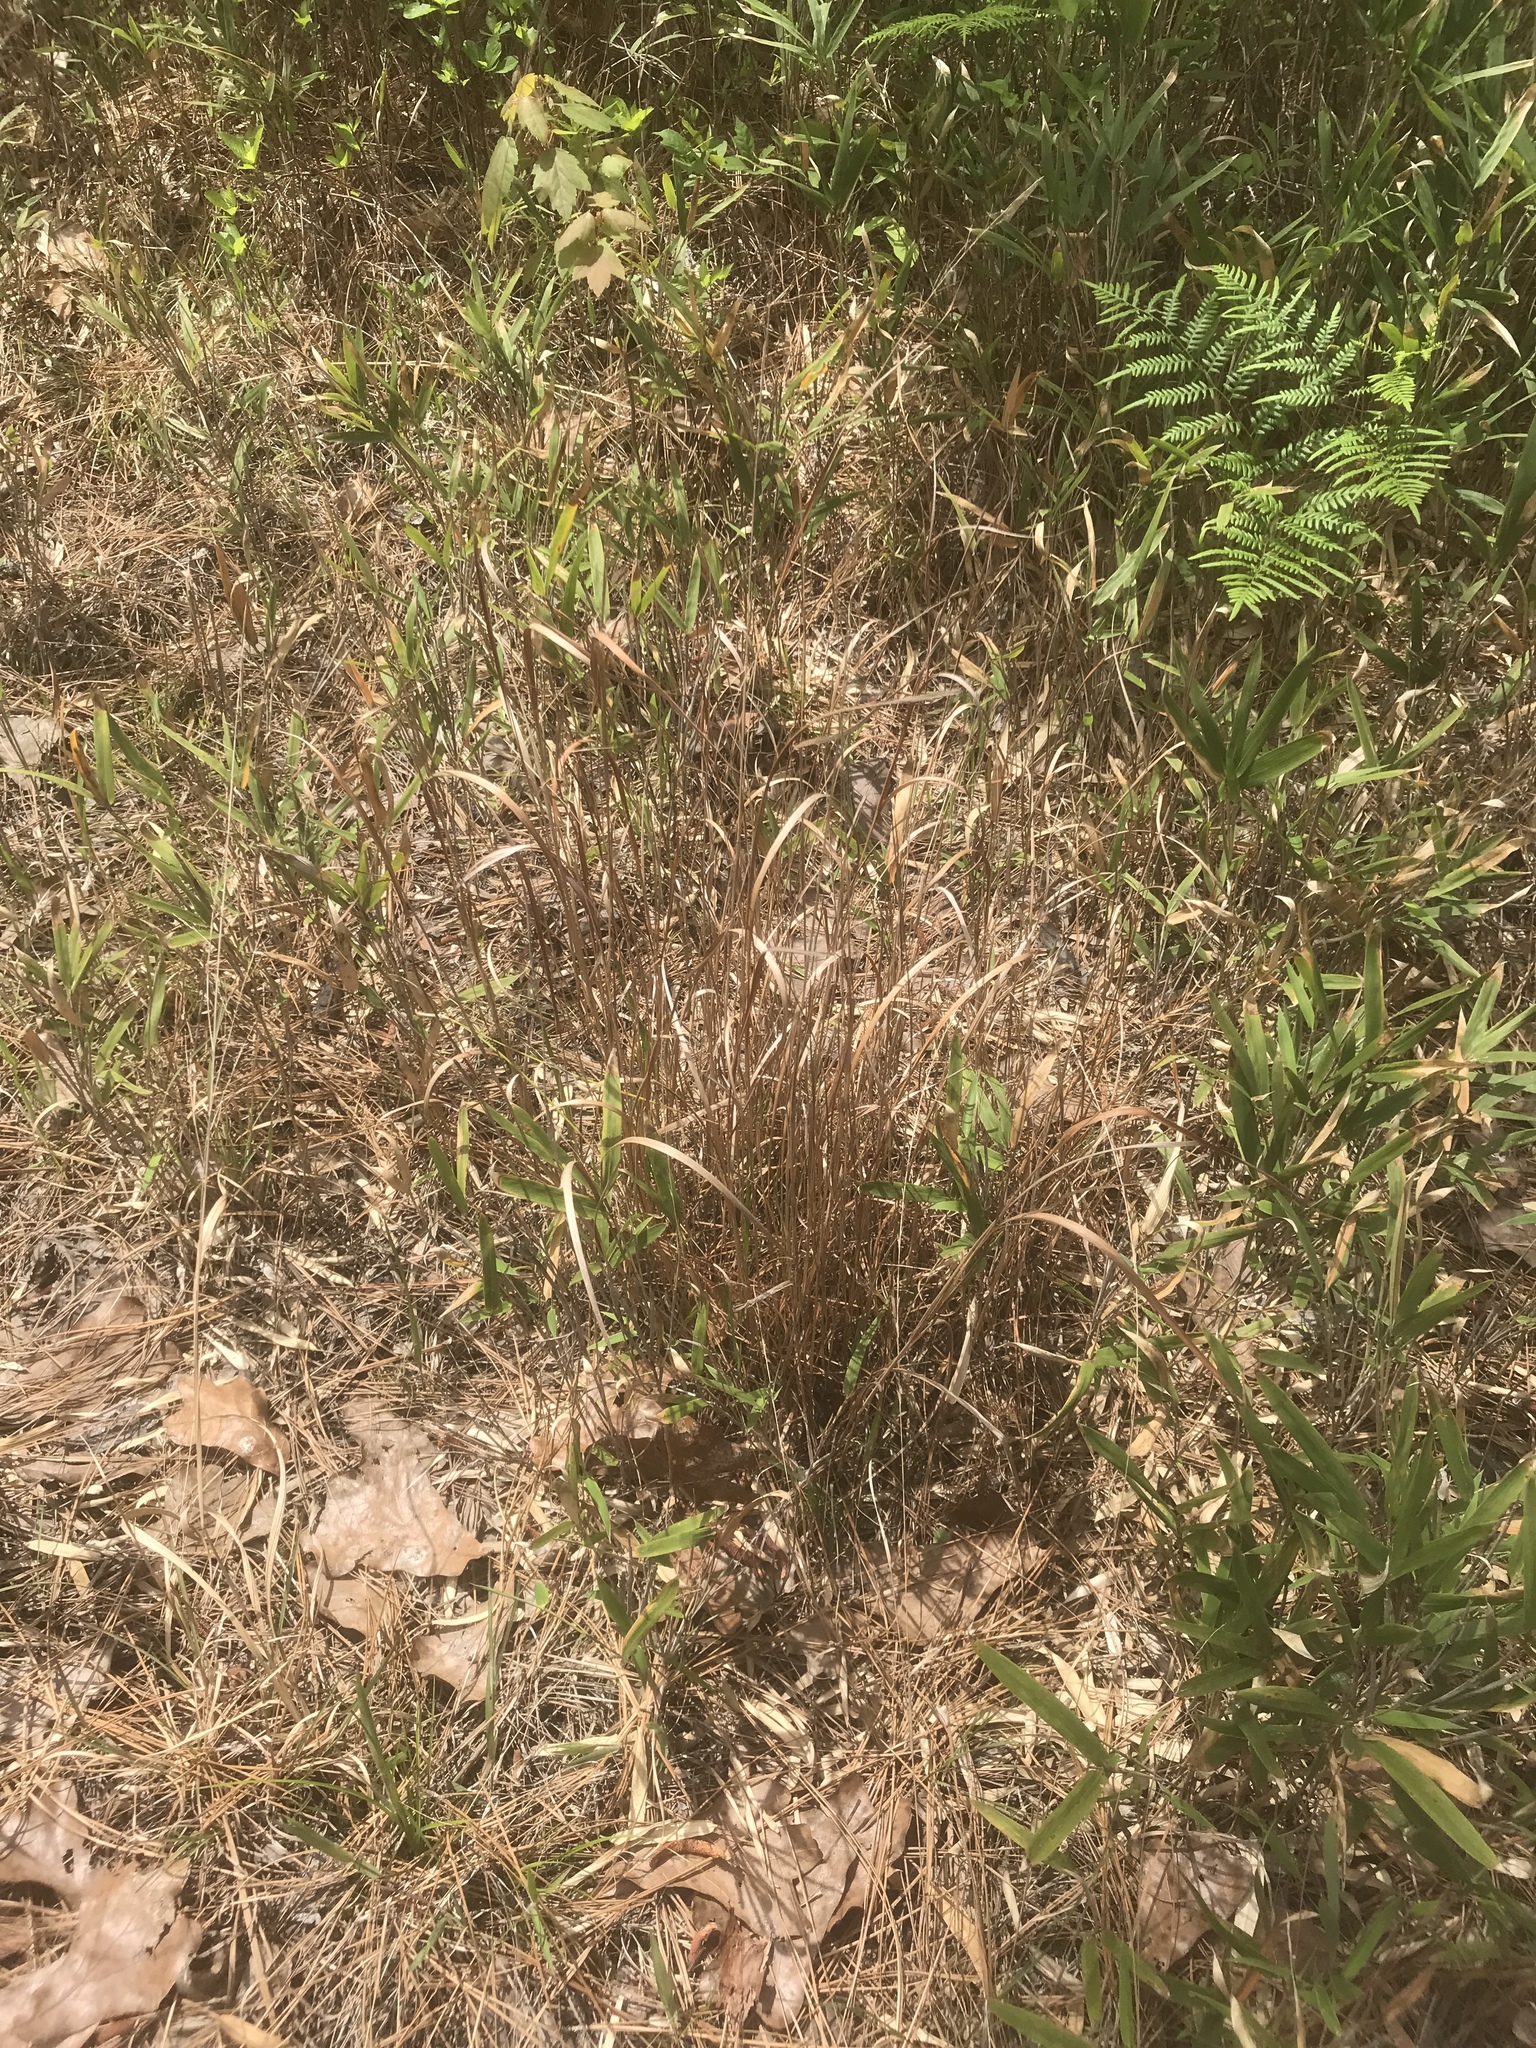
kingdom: Plantae
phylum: Tracheophyta
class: Liliopsida
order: Poales
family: Poaceae
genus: Panicum
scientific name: Panicum virgatum
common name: Switchgrass
